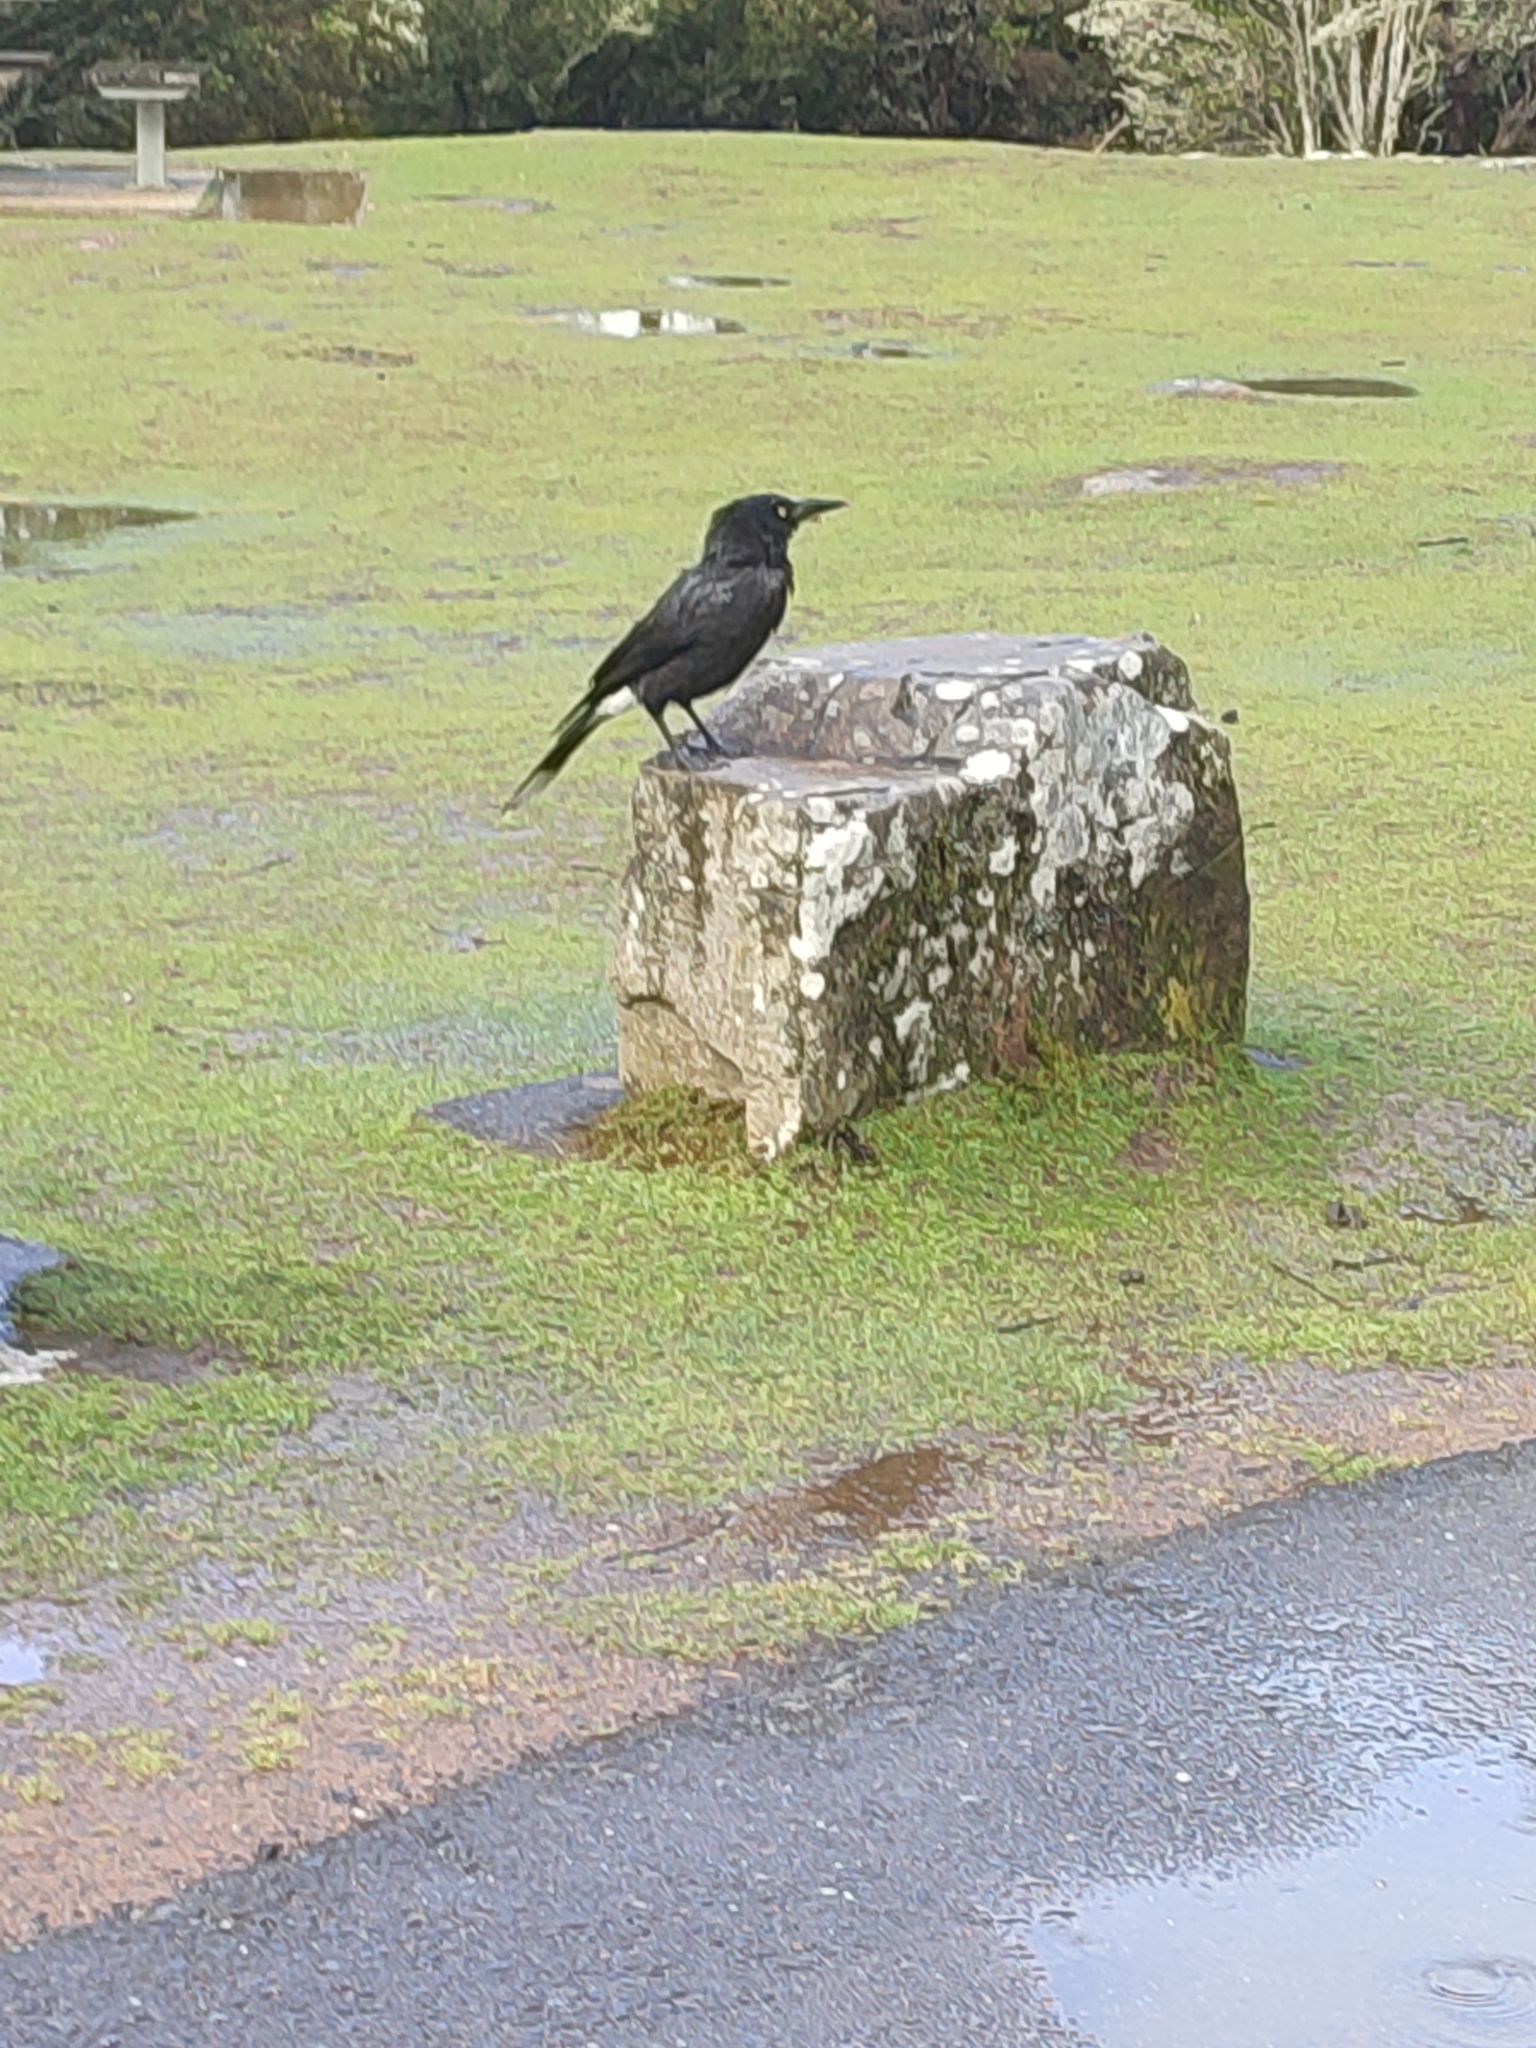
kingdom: Animalia
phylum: Chordata
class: Aves
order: Passeriformes
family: Cracticidae
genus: Strepera
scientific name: Strepera versicolor
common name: Grey currawong
